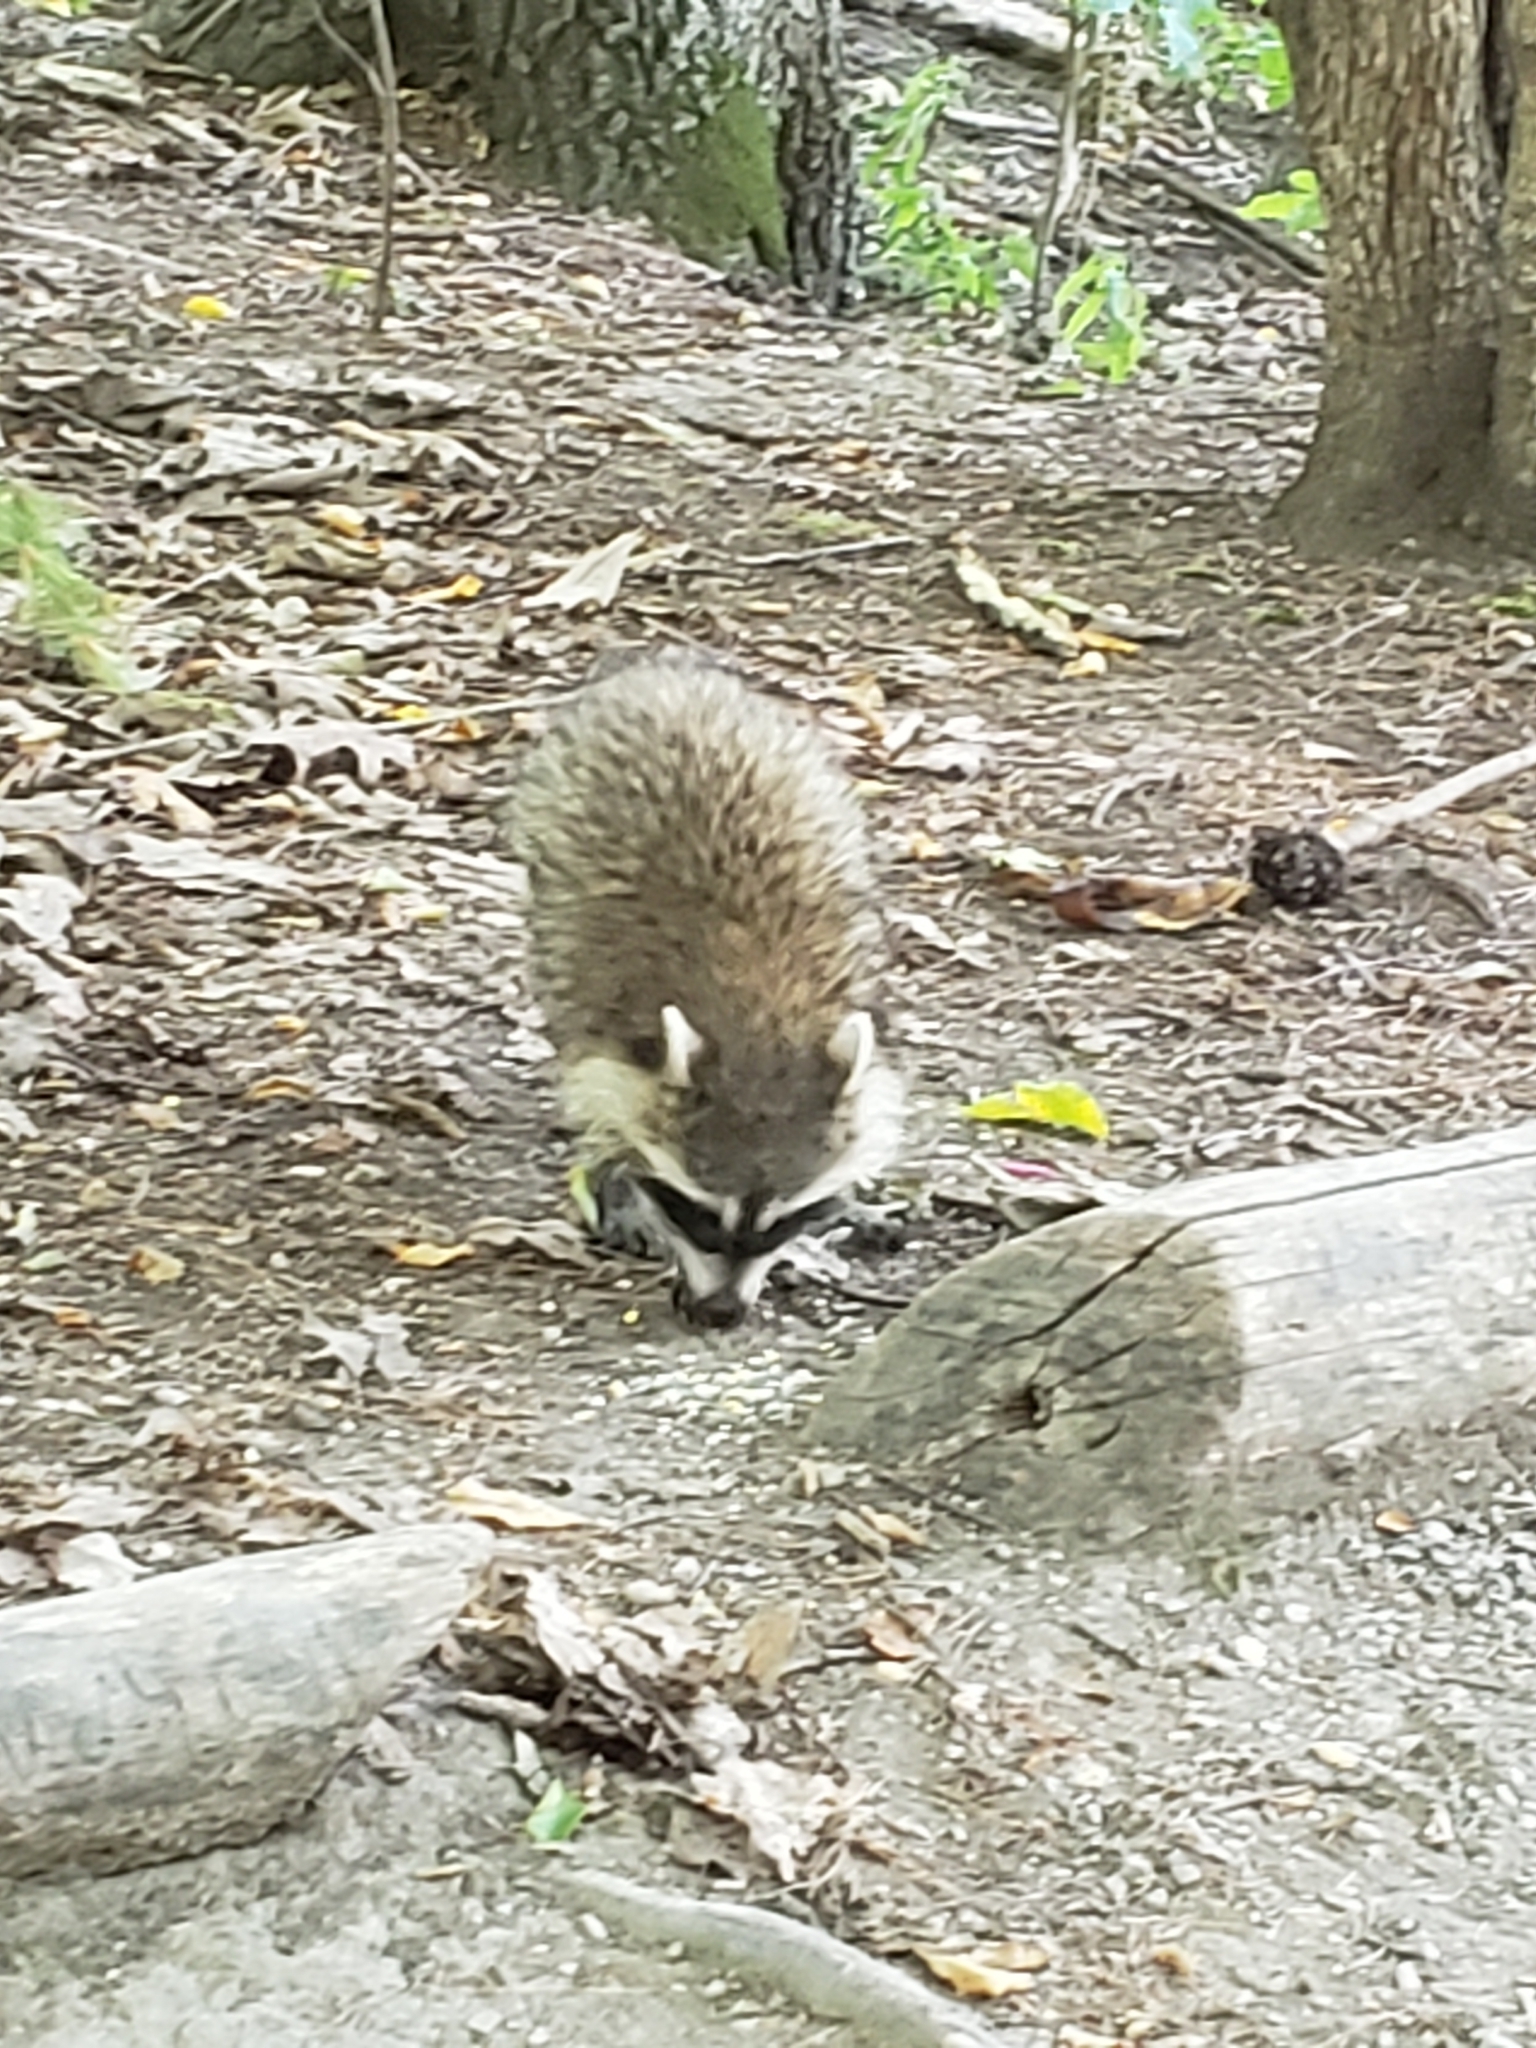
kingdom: Animalia
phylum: Chordata
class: Mammalia
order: Carnivora
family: Procyonidae
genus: Procyon
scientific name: Procyon lotor
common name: Raccoon
